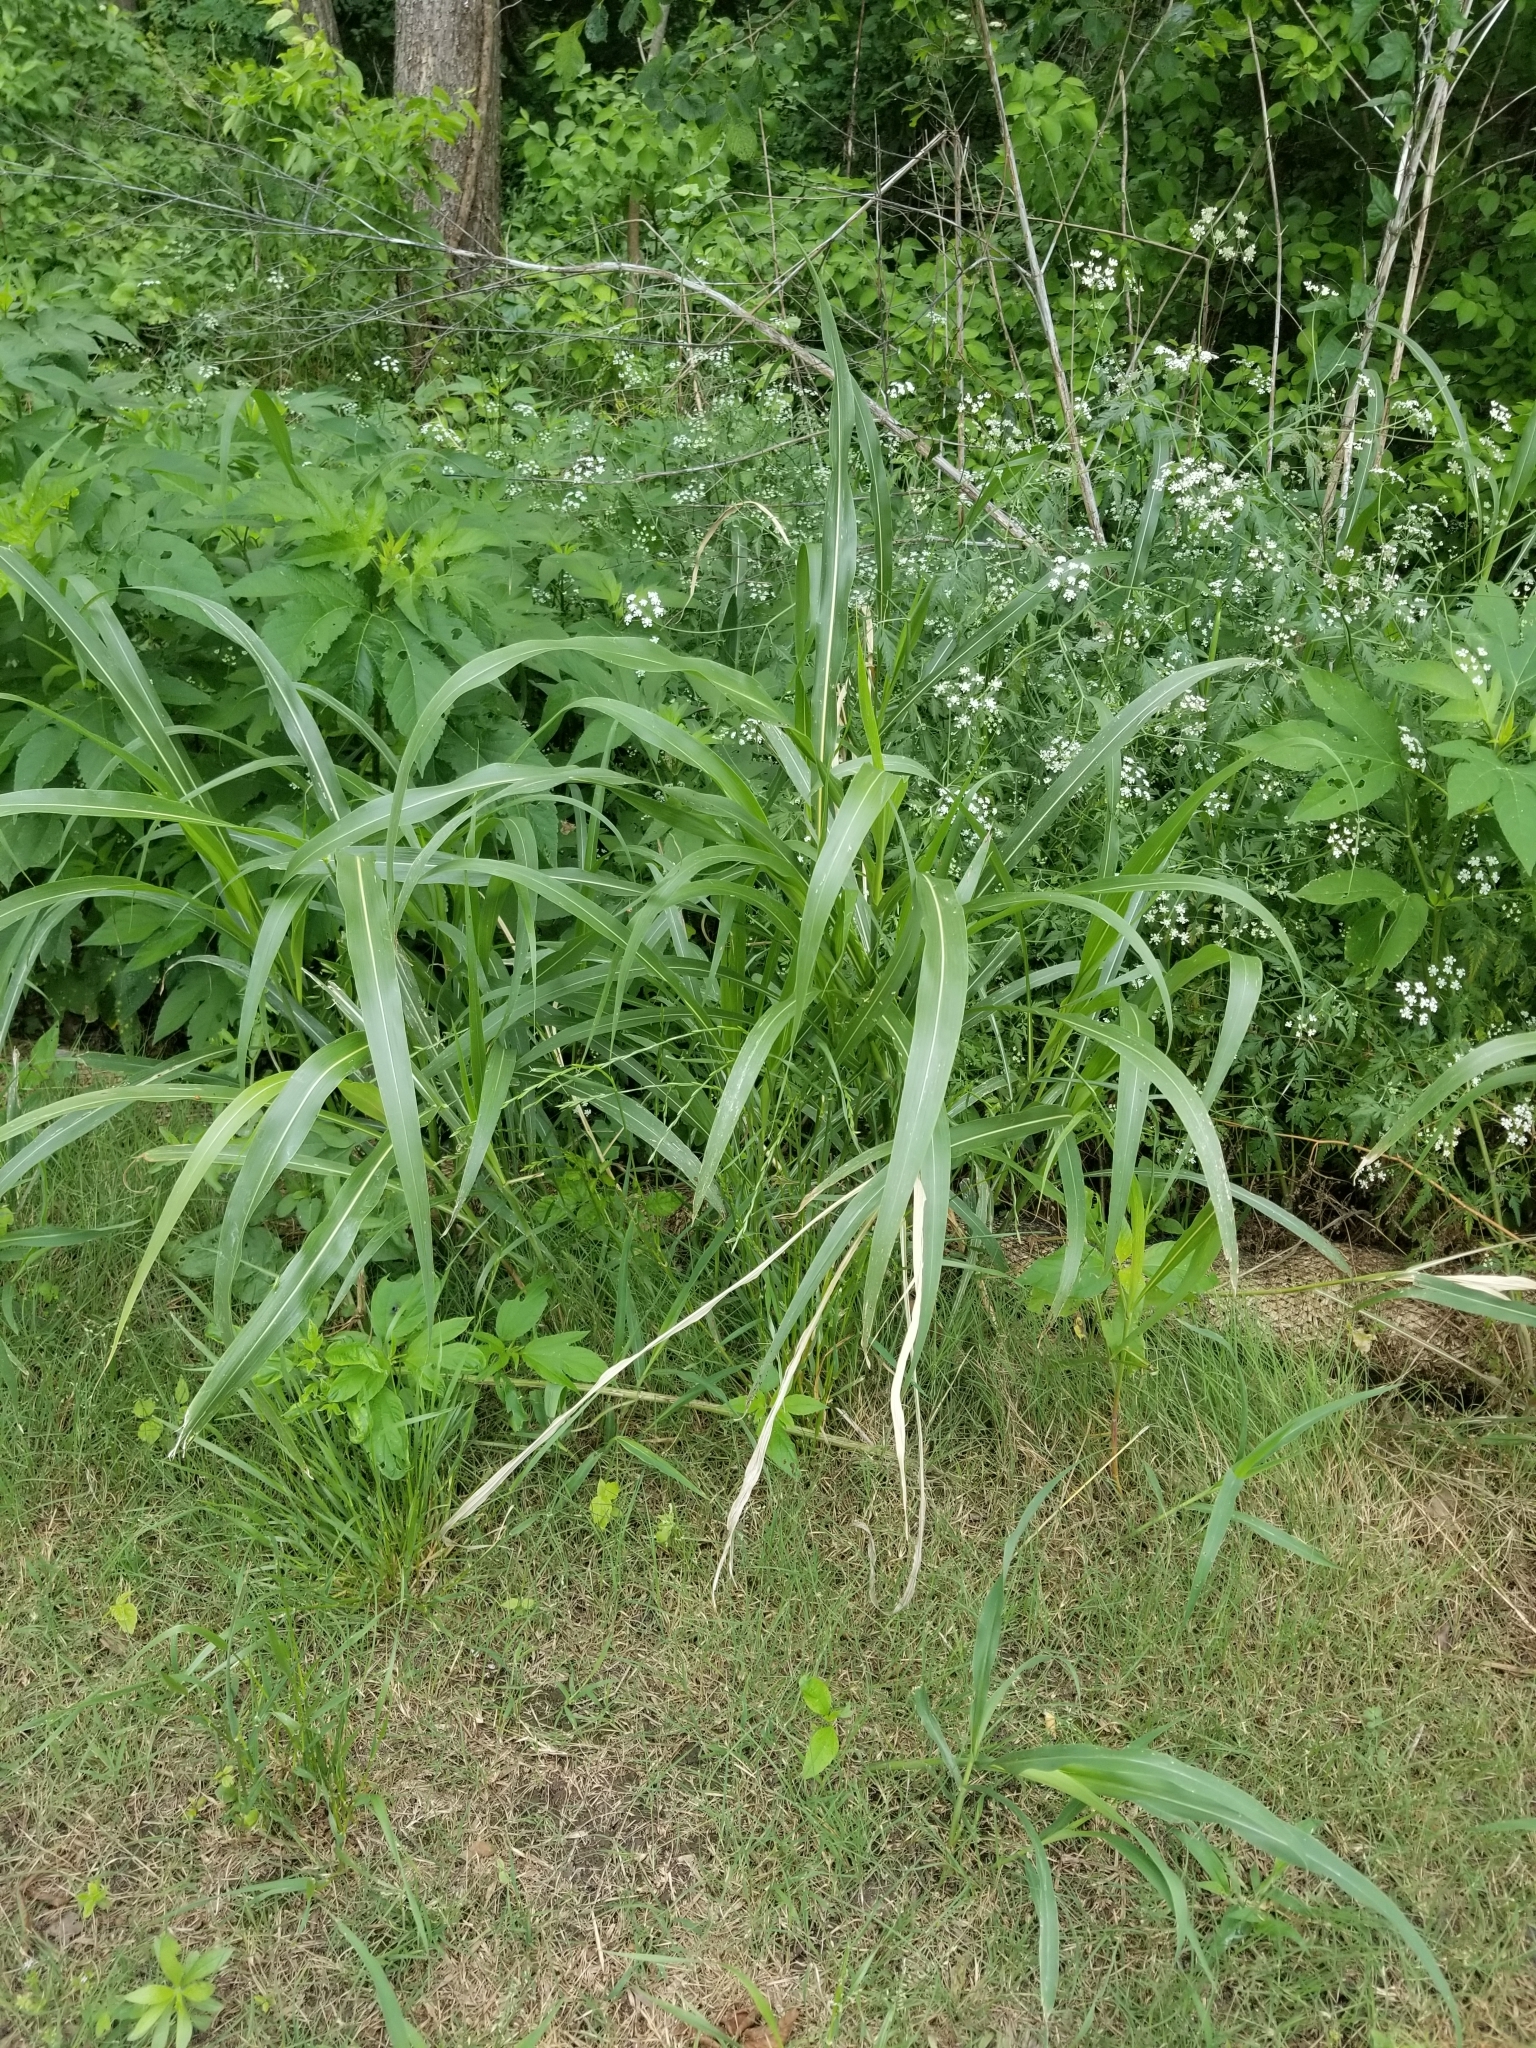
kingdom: Plantae
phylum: Tracheophyta
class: Liliopsida
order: Poales
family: Poaceae
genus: Sorghum
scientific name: Sorghum halepense
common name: Johnson-grass
